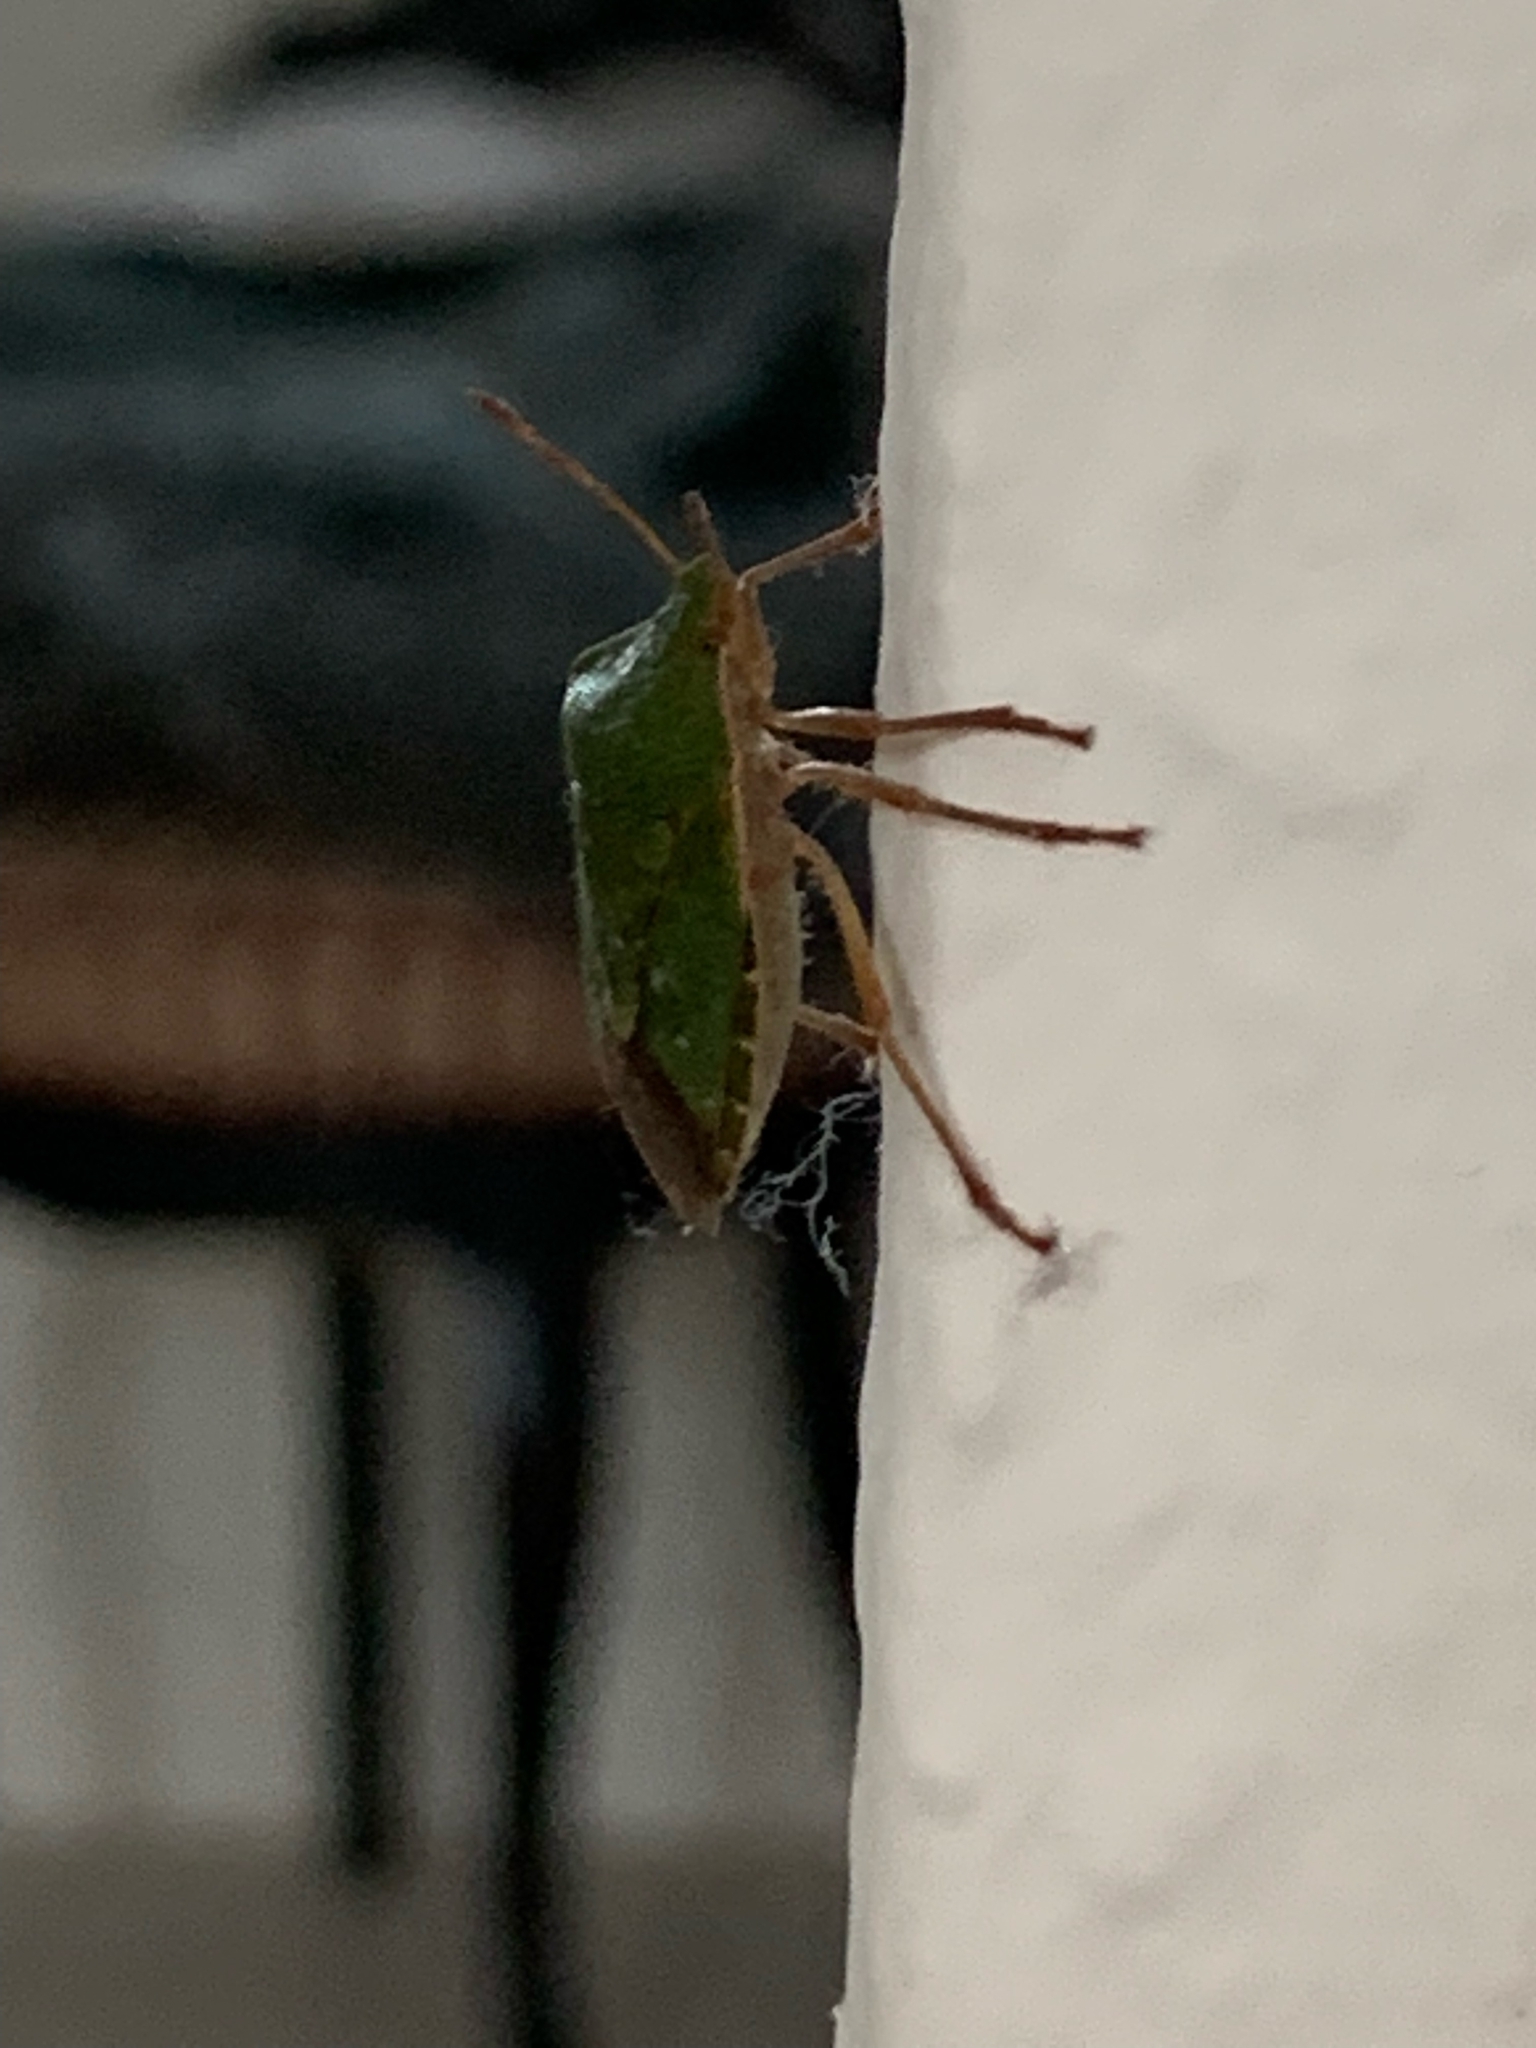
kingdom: Animalia
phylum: Arthropoda
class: Insecta
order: Hemiptera
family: Pentatomidae
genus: Palomena
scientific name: Palomena prasina
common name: Green shieldbug
